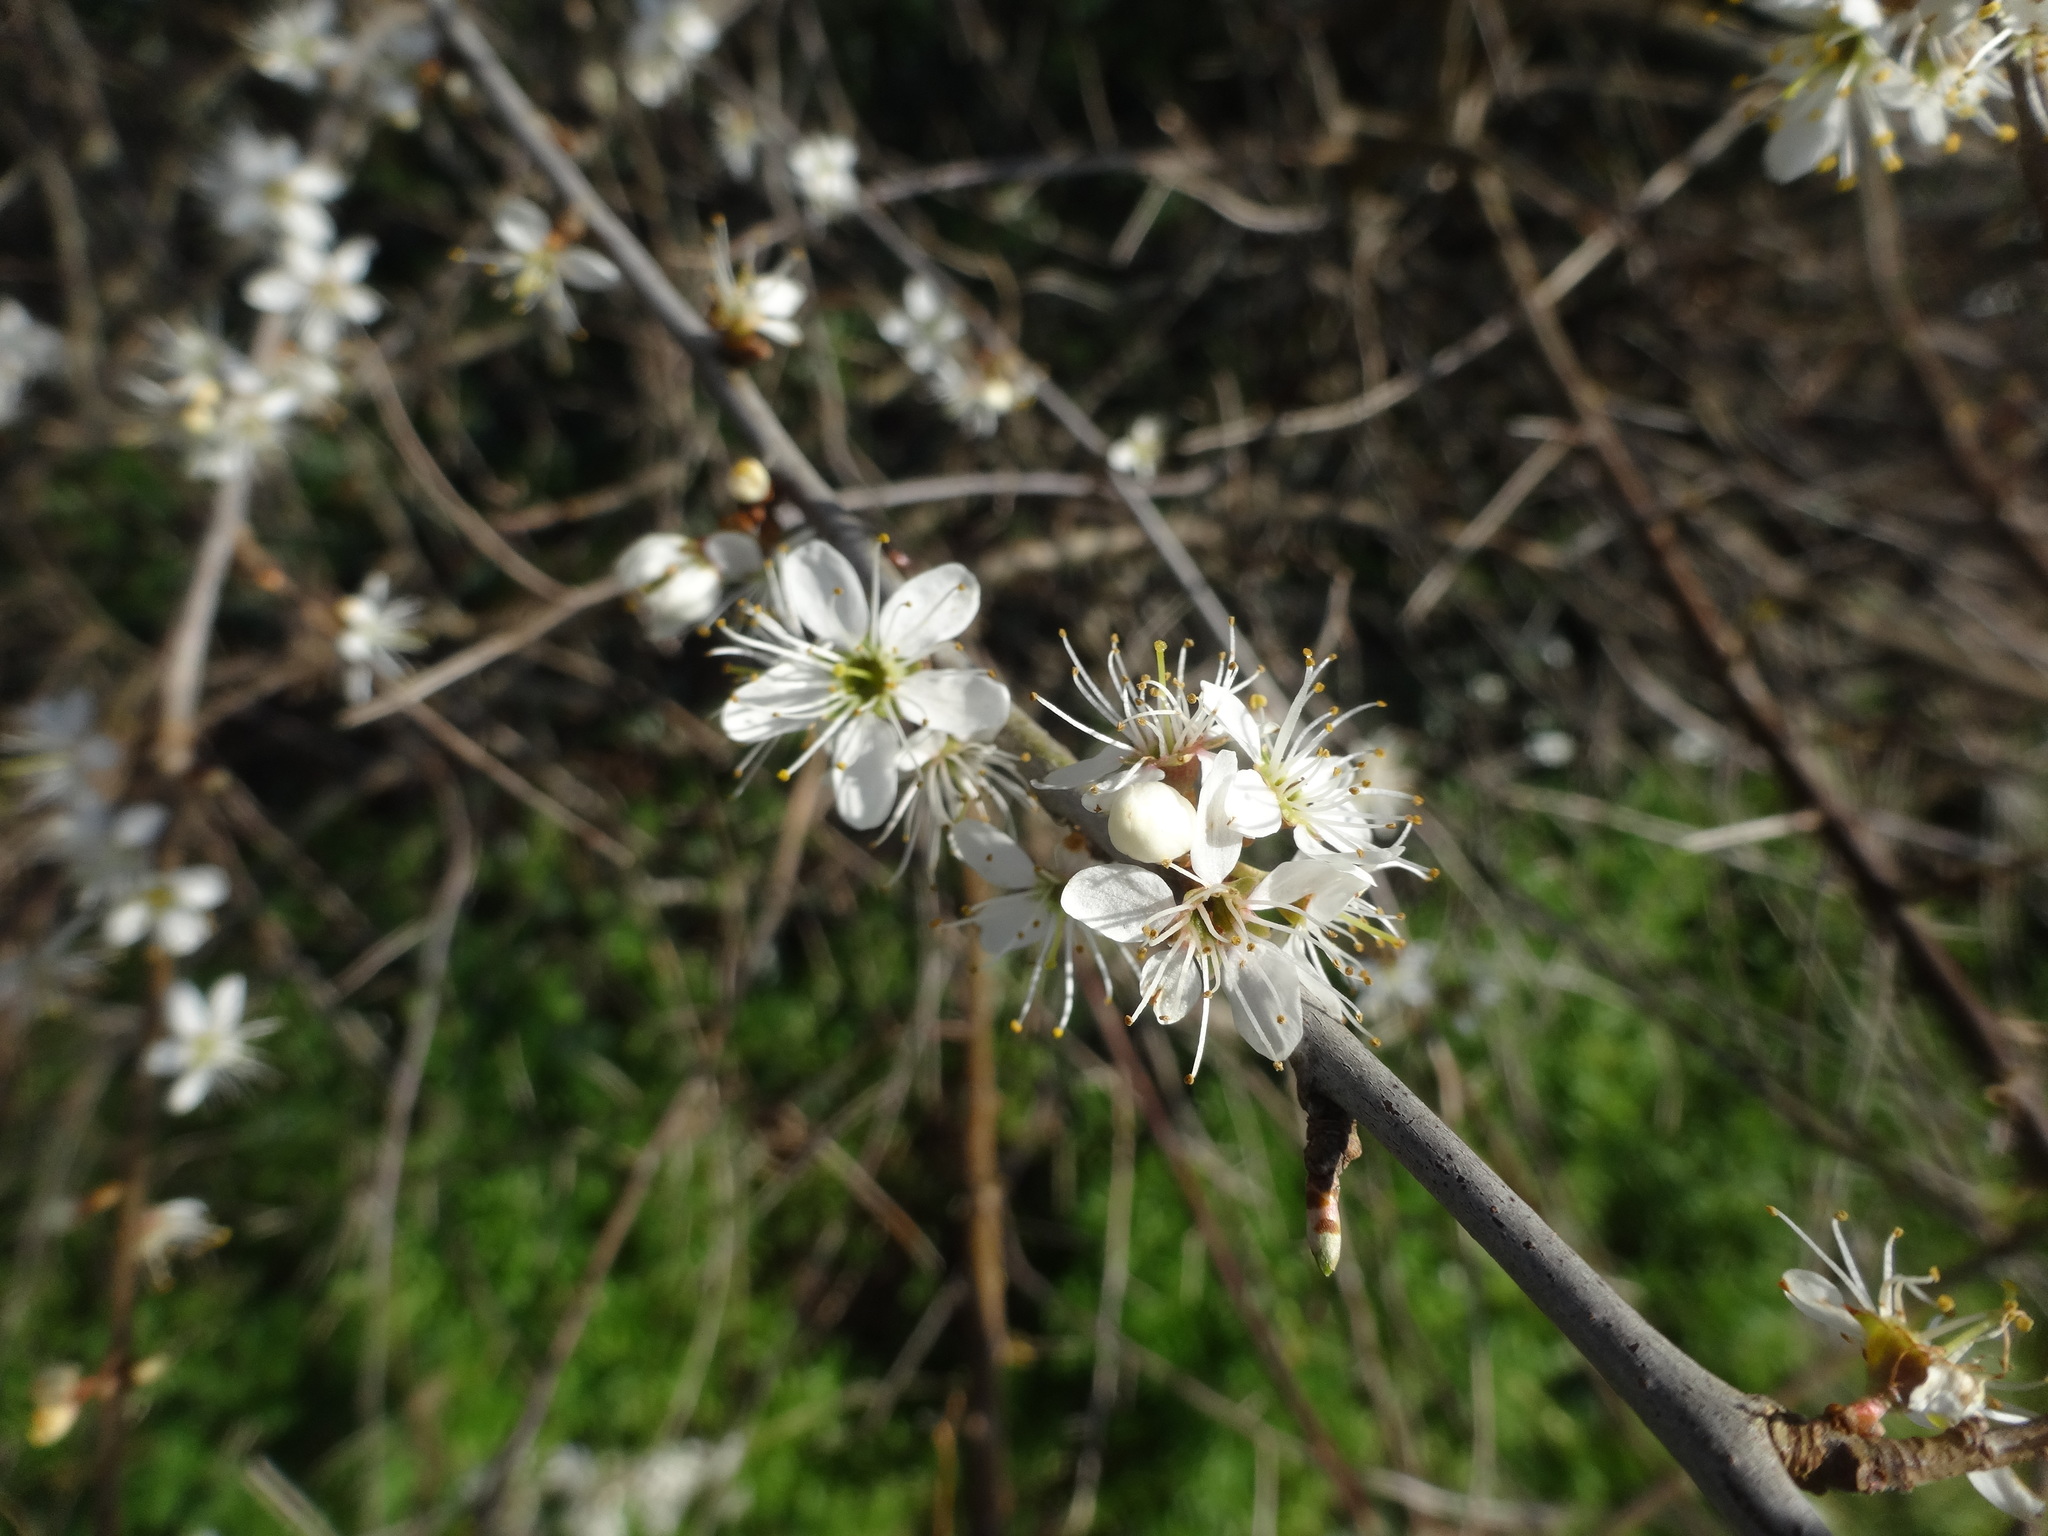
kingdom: Plantae
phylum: Tracheophyta
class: Magnoliopsida
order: Rosales
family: Rosaceae
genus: Prunus
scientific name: Prunus spinosa
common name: Blackthorn
